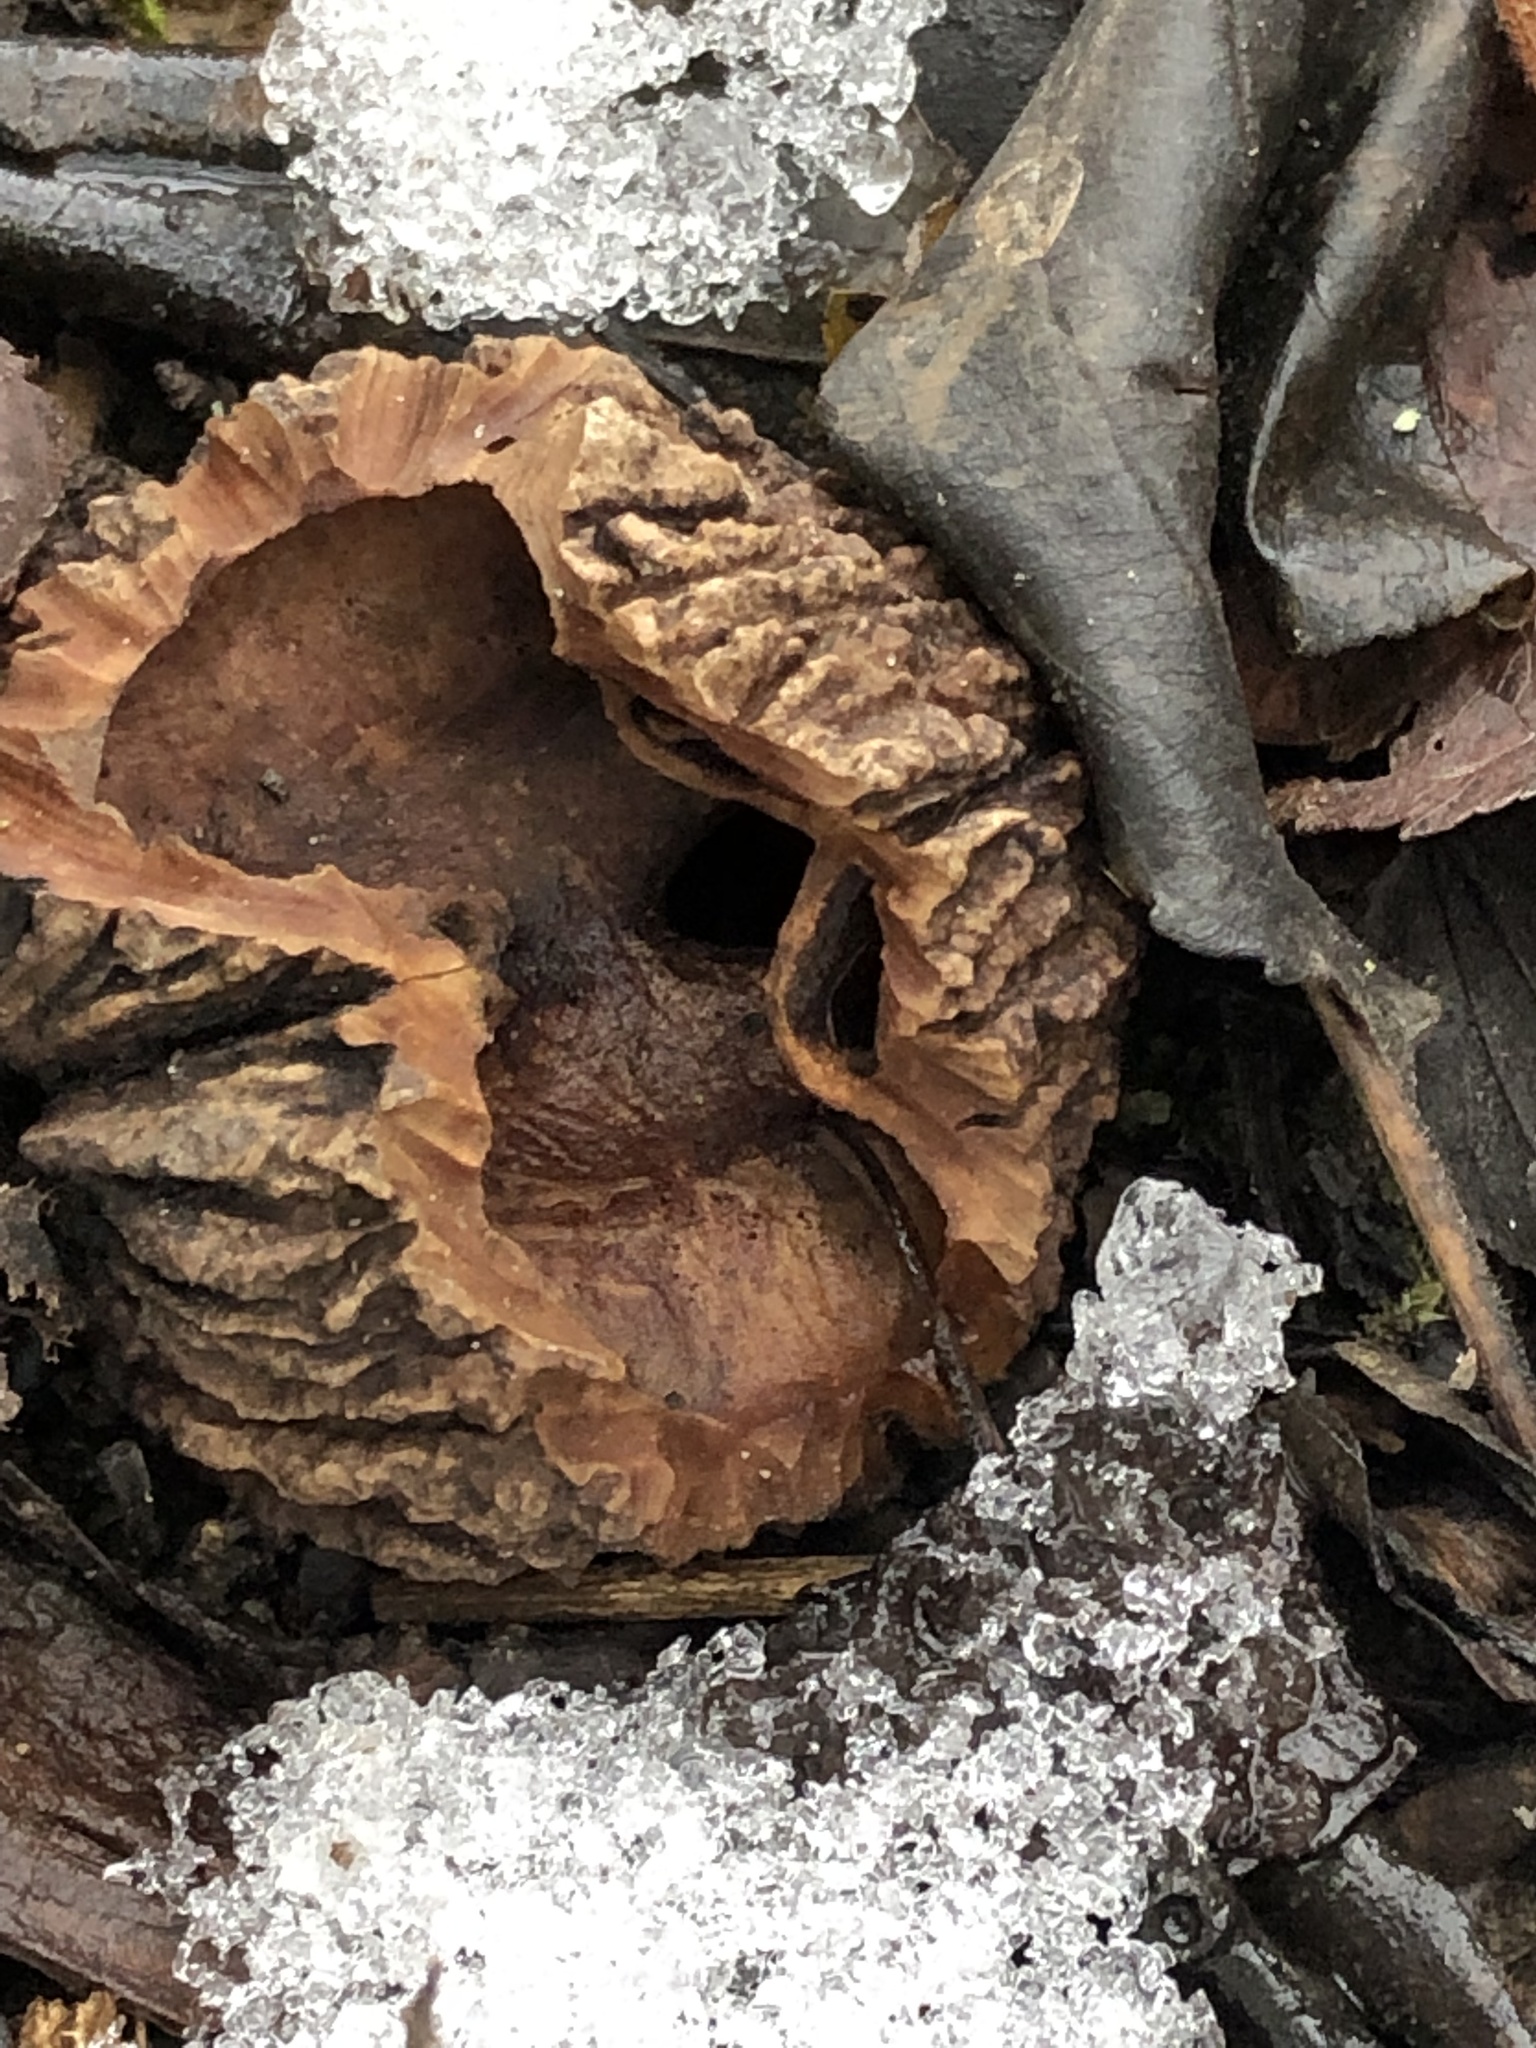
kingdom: Plantae
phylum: Tracheophyta
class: Magnoliopsida
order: Fagales
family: Juglandaceae
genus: Juglans
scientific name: Juglans nigra
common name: Black walnut
